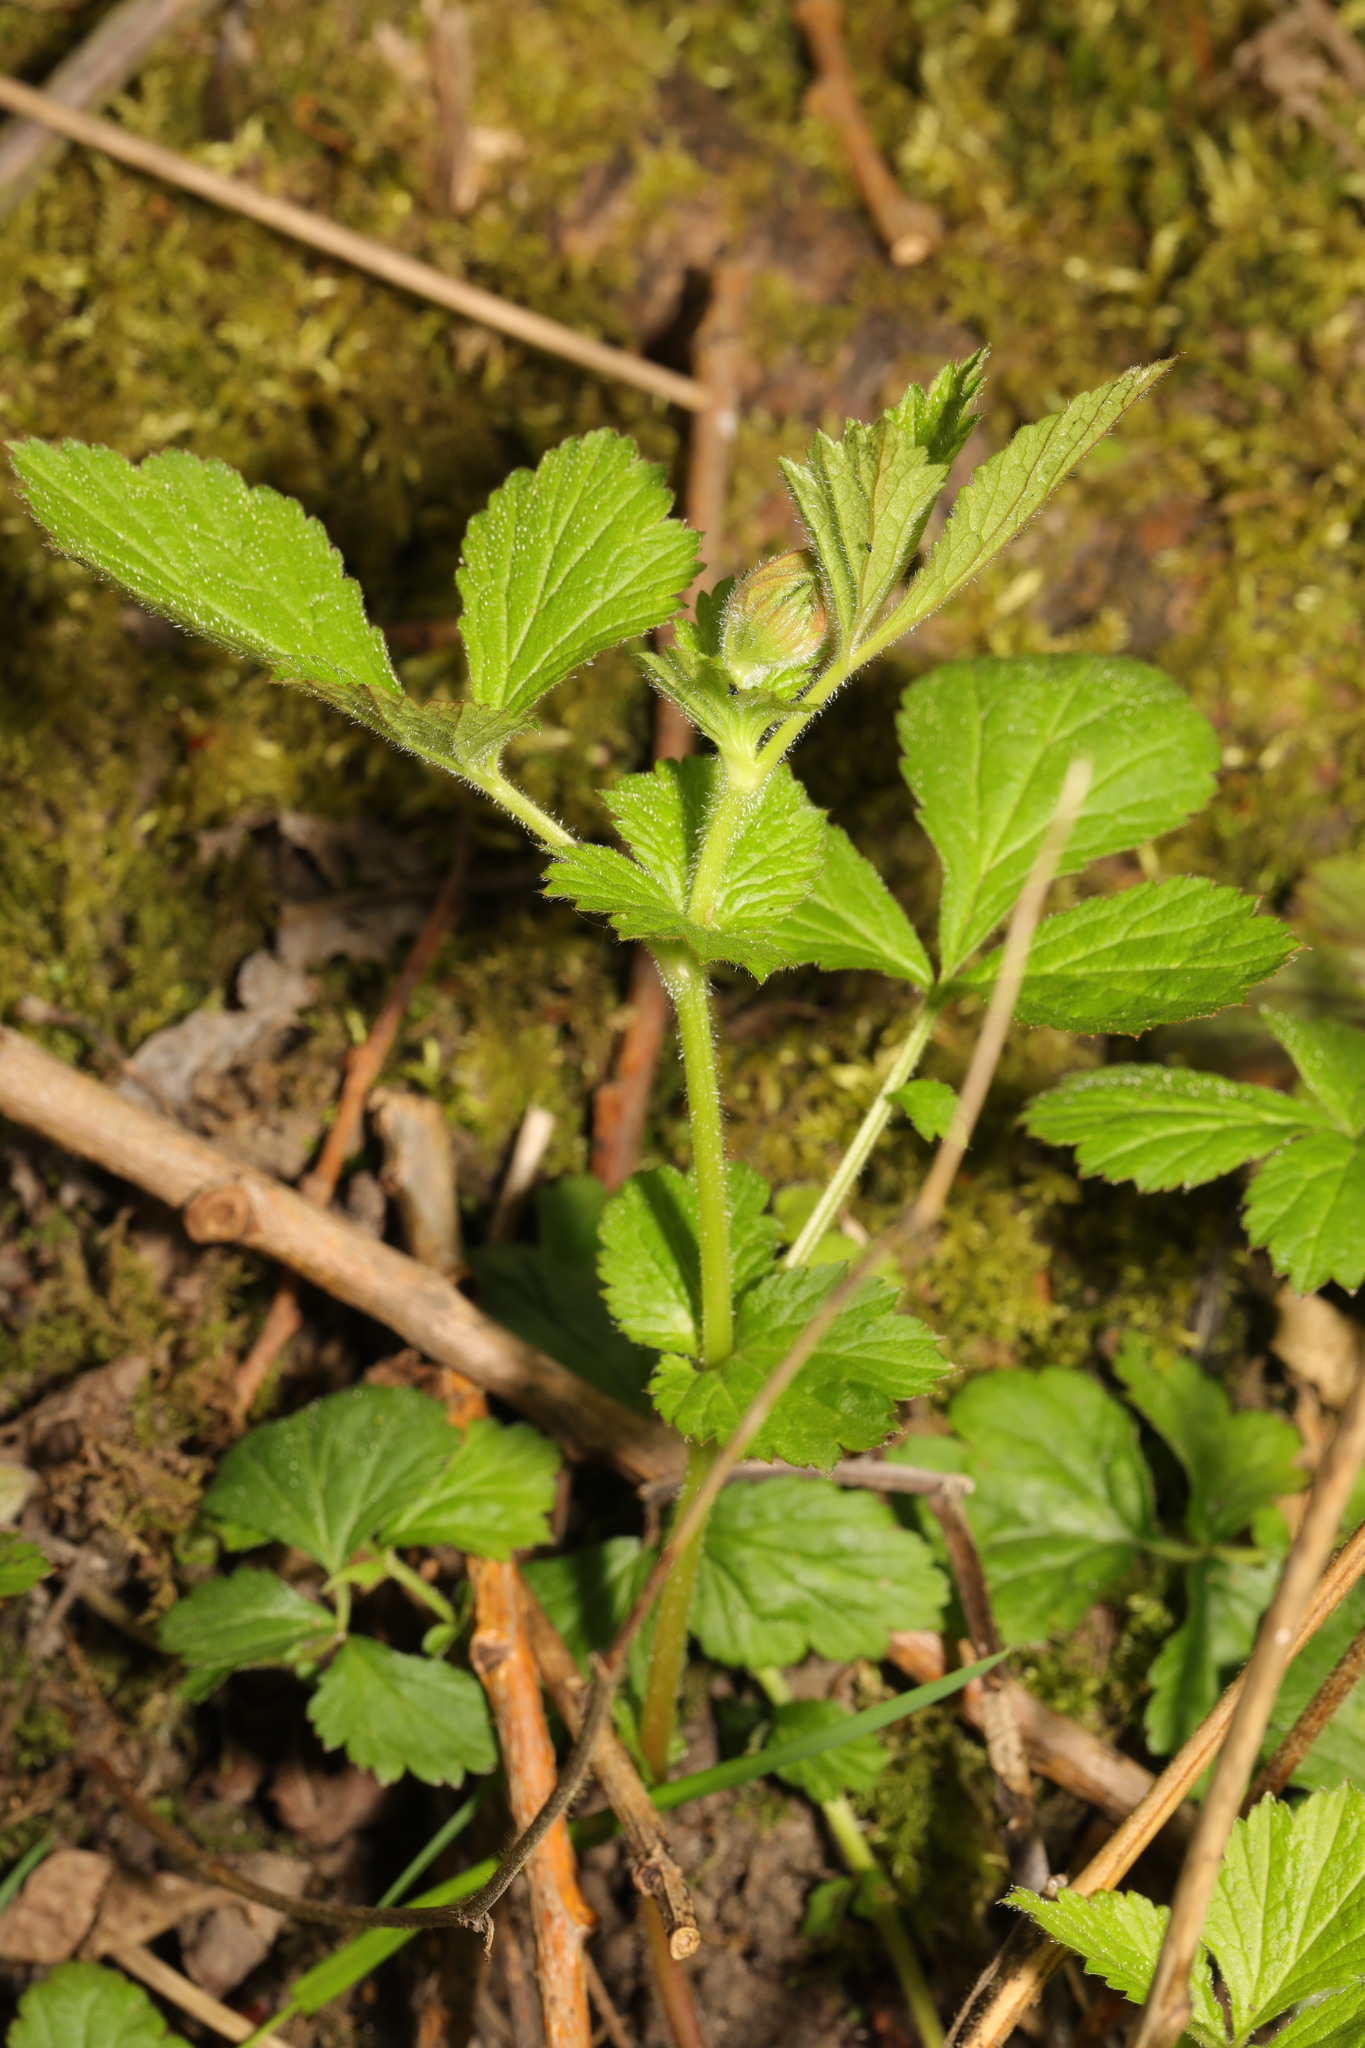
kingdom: Plantae
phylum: Tracheophyta
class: Magnoliopsida
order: Rosales
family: Rosaceae
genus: Geum
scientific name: Geum urbanum
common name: Wood avens
